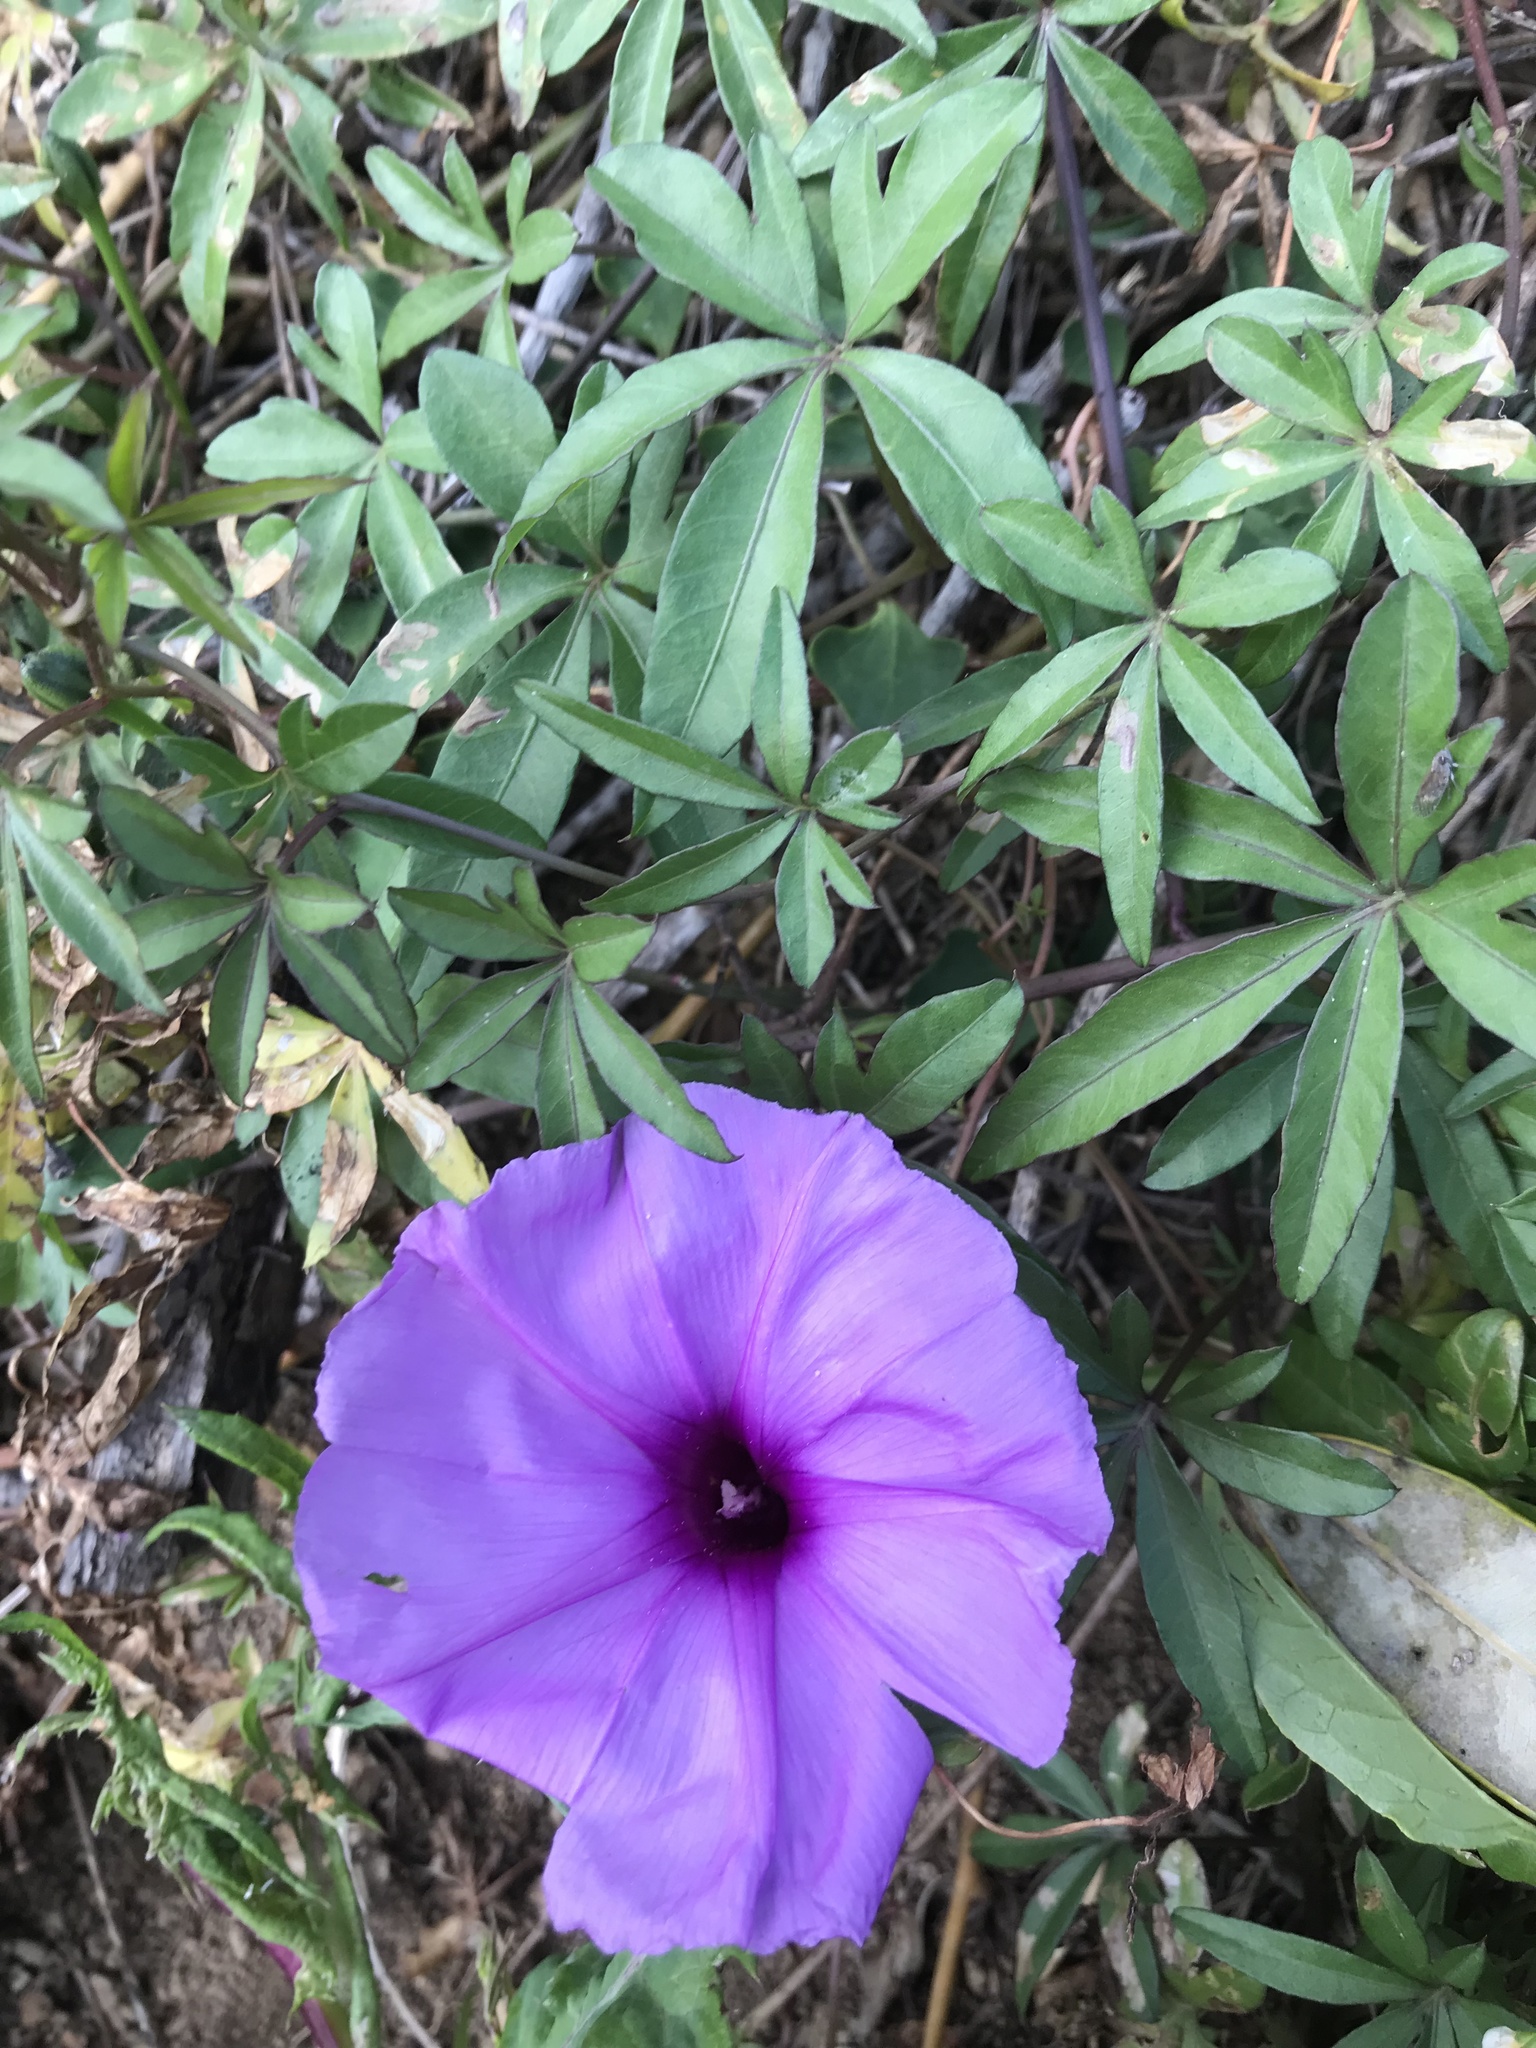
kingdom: Plantae
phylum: Tracheophyta
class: Magnoliopsida
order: Solanales
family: Convolvulaceae
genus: Ipomoea
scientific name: Ipomoea cairica
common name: Mile a minute vine
